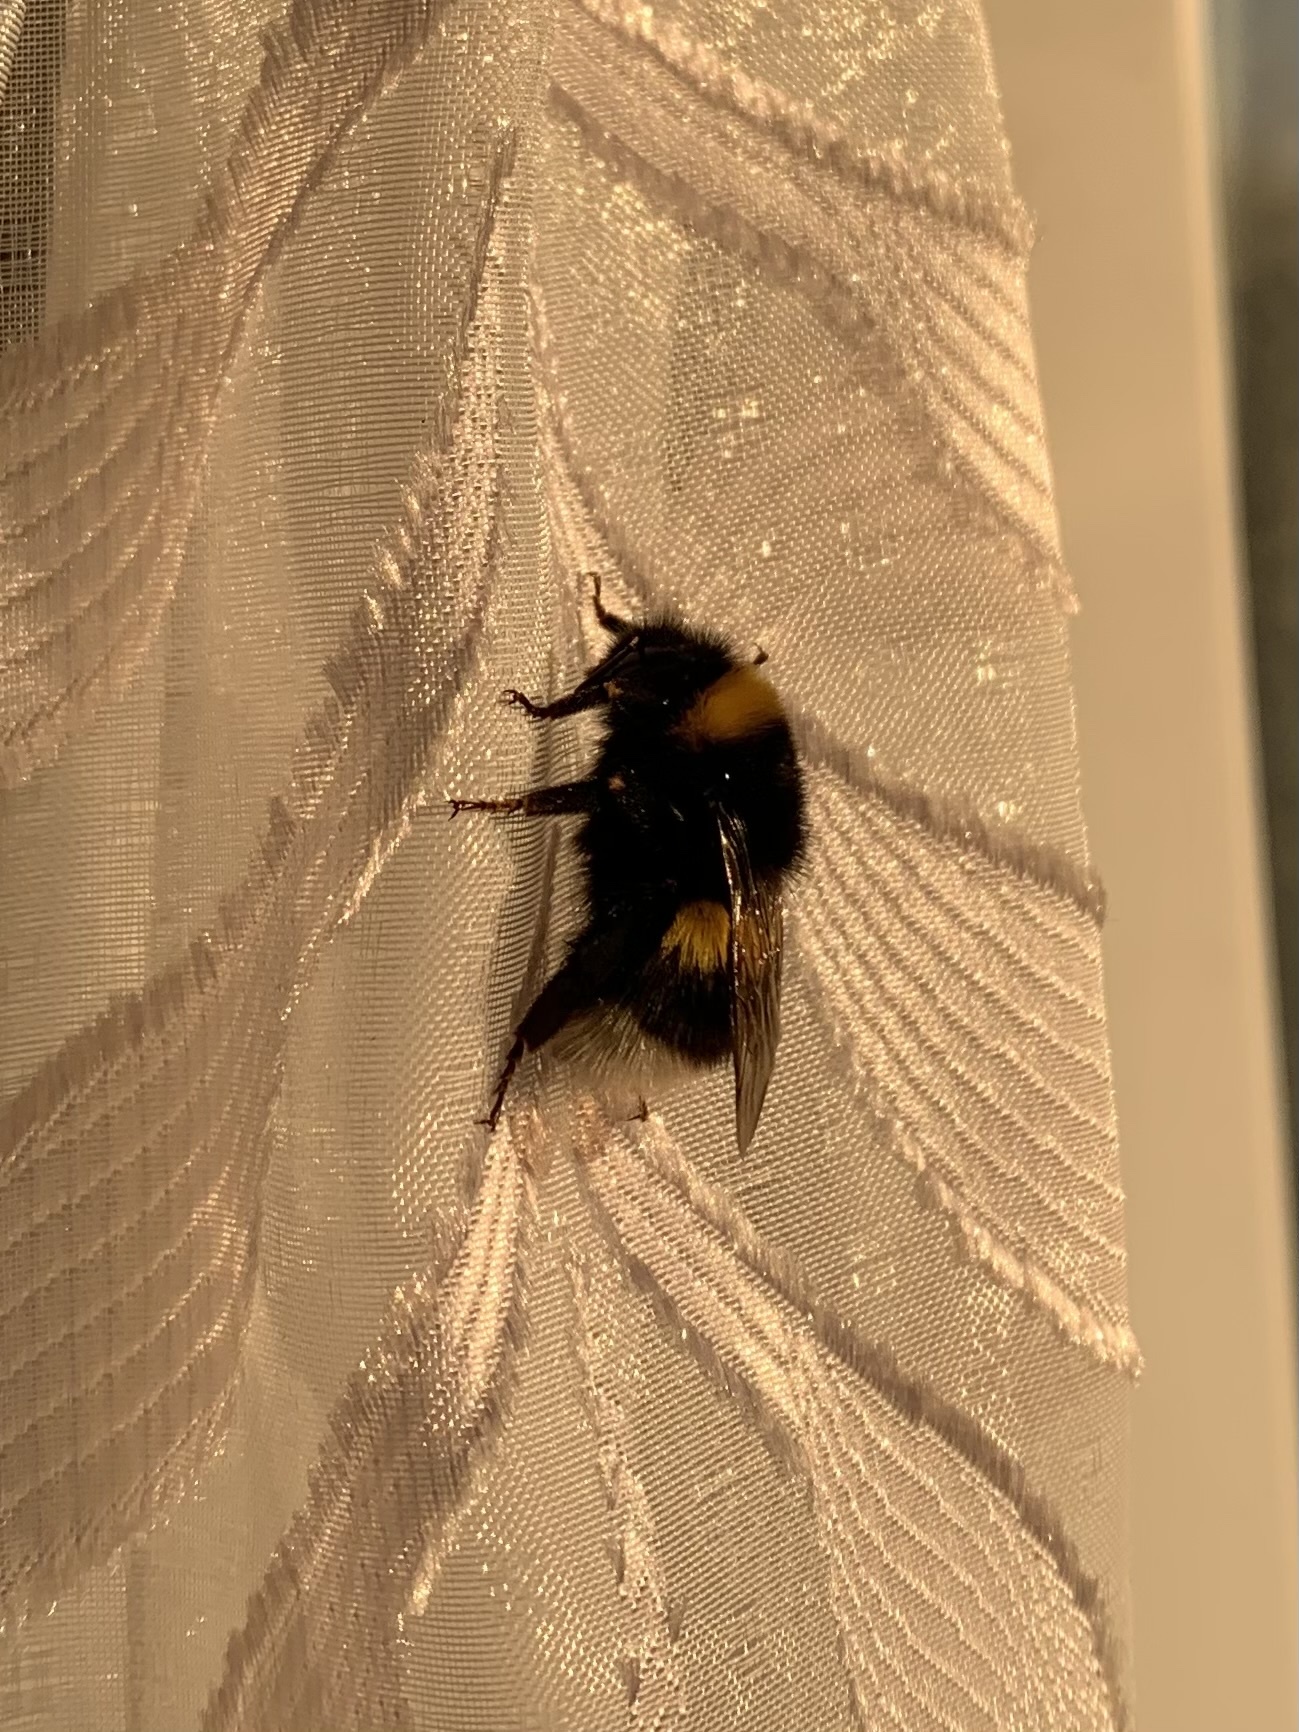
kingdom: Animalia
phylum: Arthropoda
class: Insecta
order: Hymenoptera
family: Apidae
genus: Bombus
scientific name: Bombus
